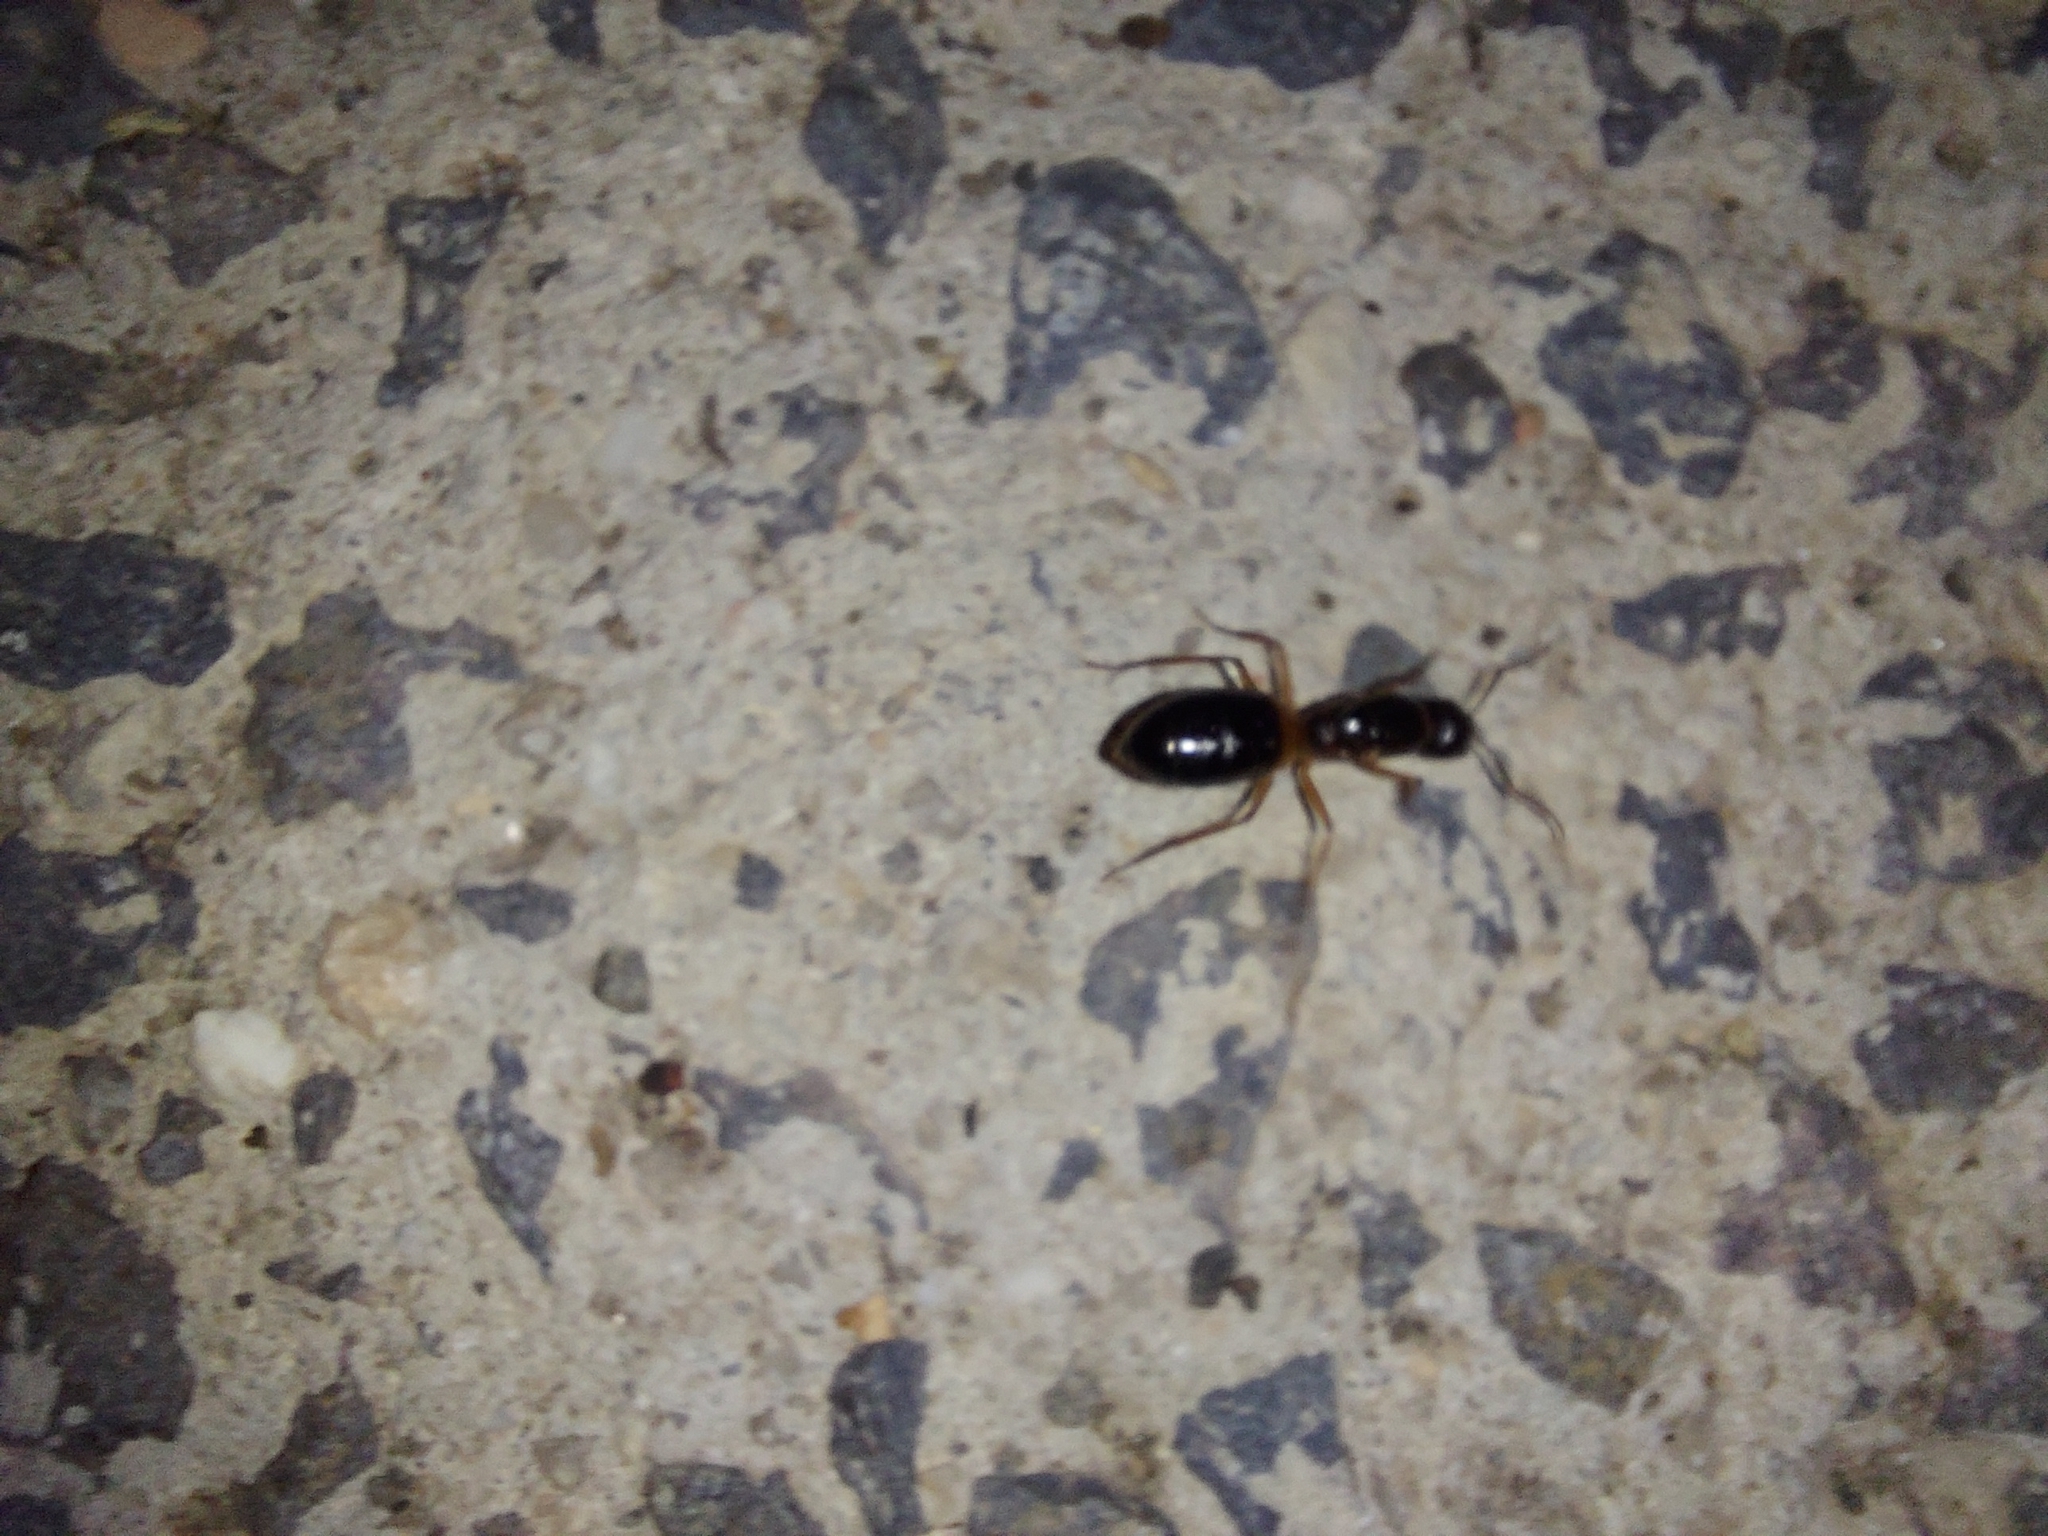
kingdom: Animalia
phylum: Arthropoda
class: Insecta
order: Hymenoptera
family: Formicidae
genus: Camponotus
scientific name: Camponotus consobrinus
